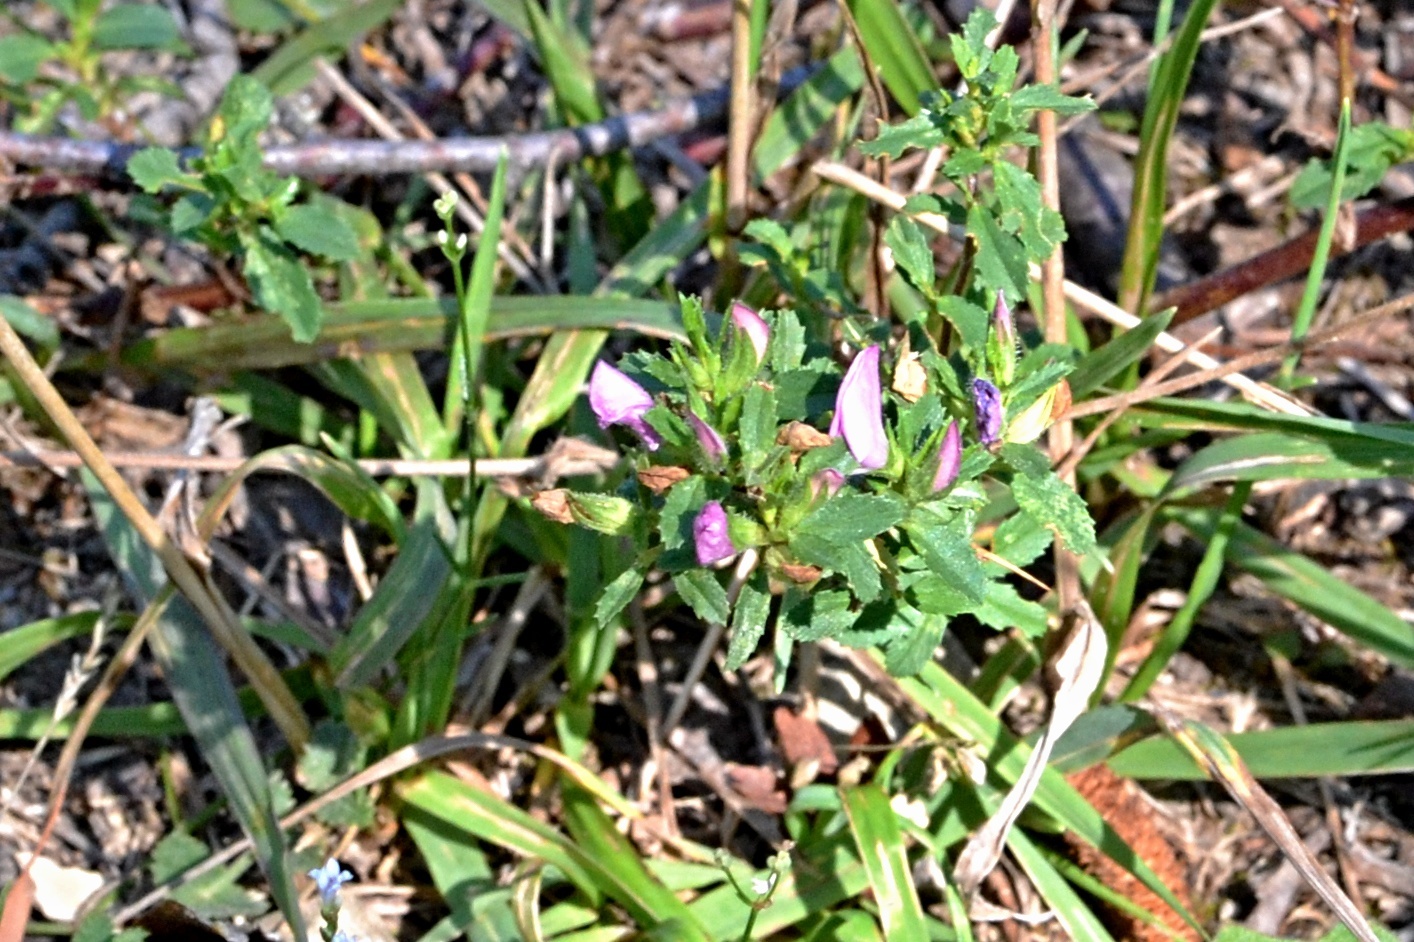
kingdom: Plantae
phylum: Tracheophyta
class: Magnoliopsida
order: Fabales
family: Fabaceae
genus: Ononis
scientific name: Ononis spinosa
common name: Spiny restharrow
